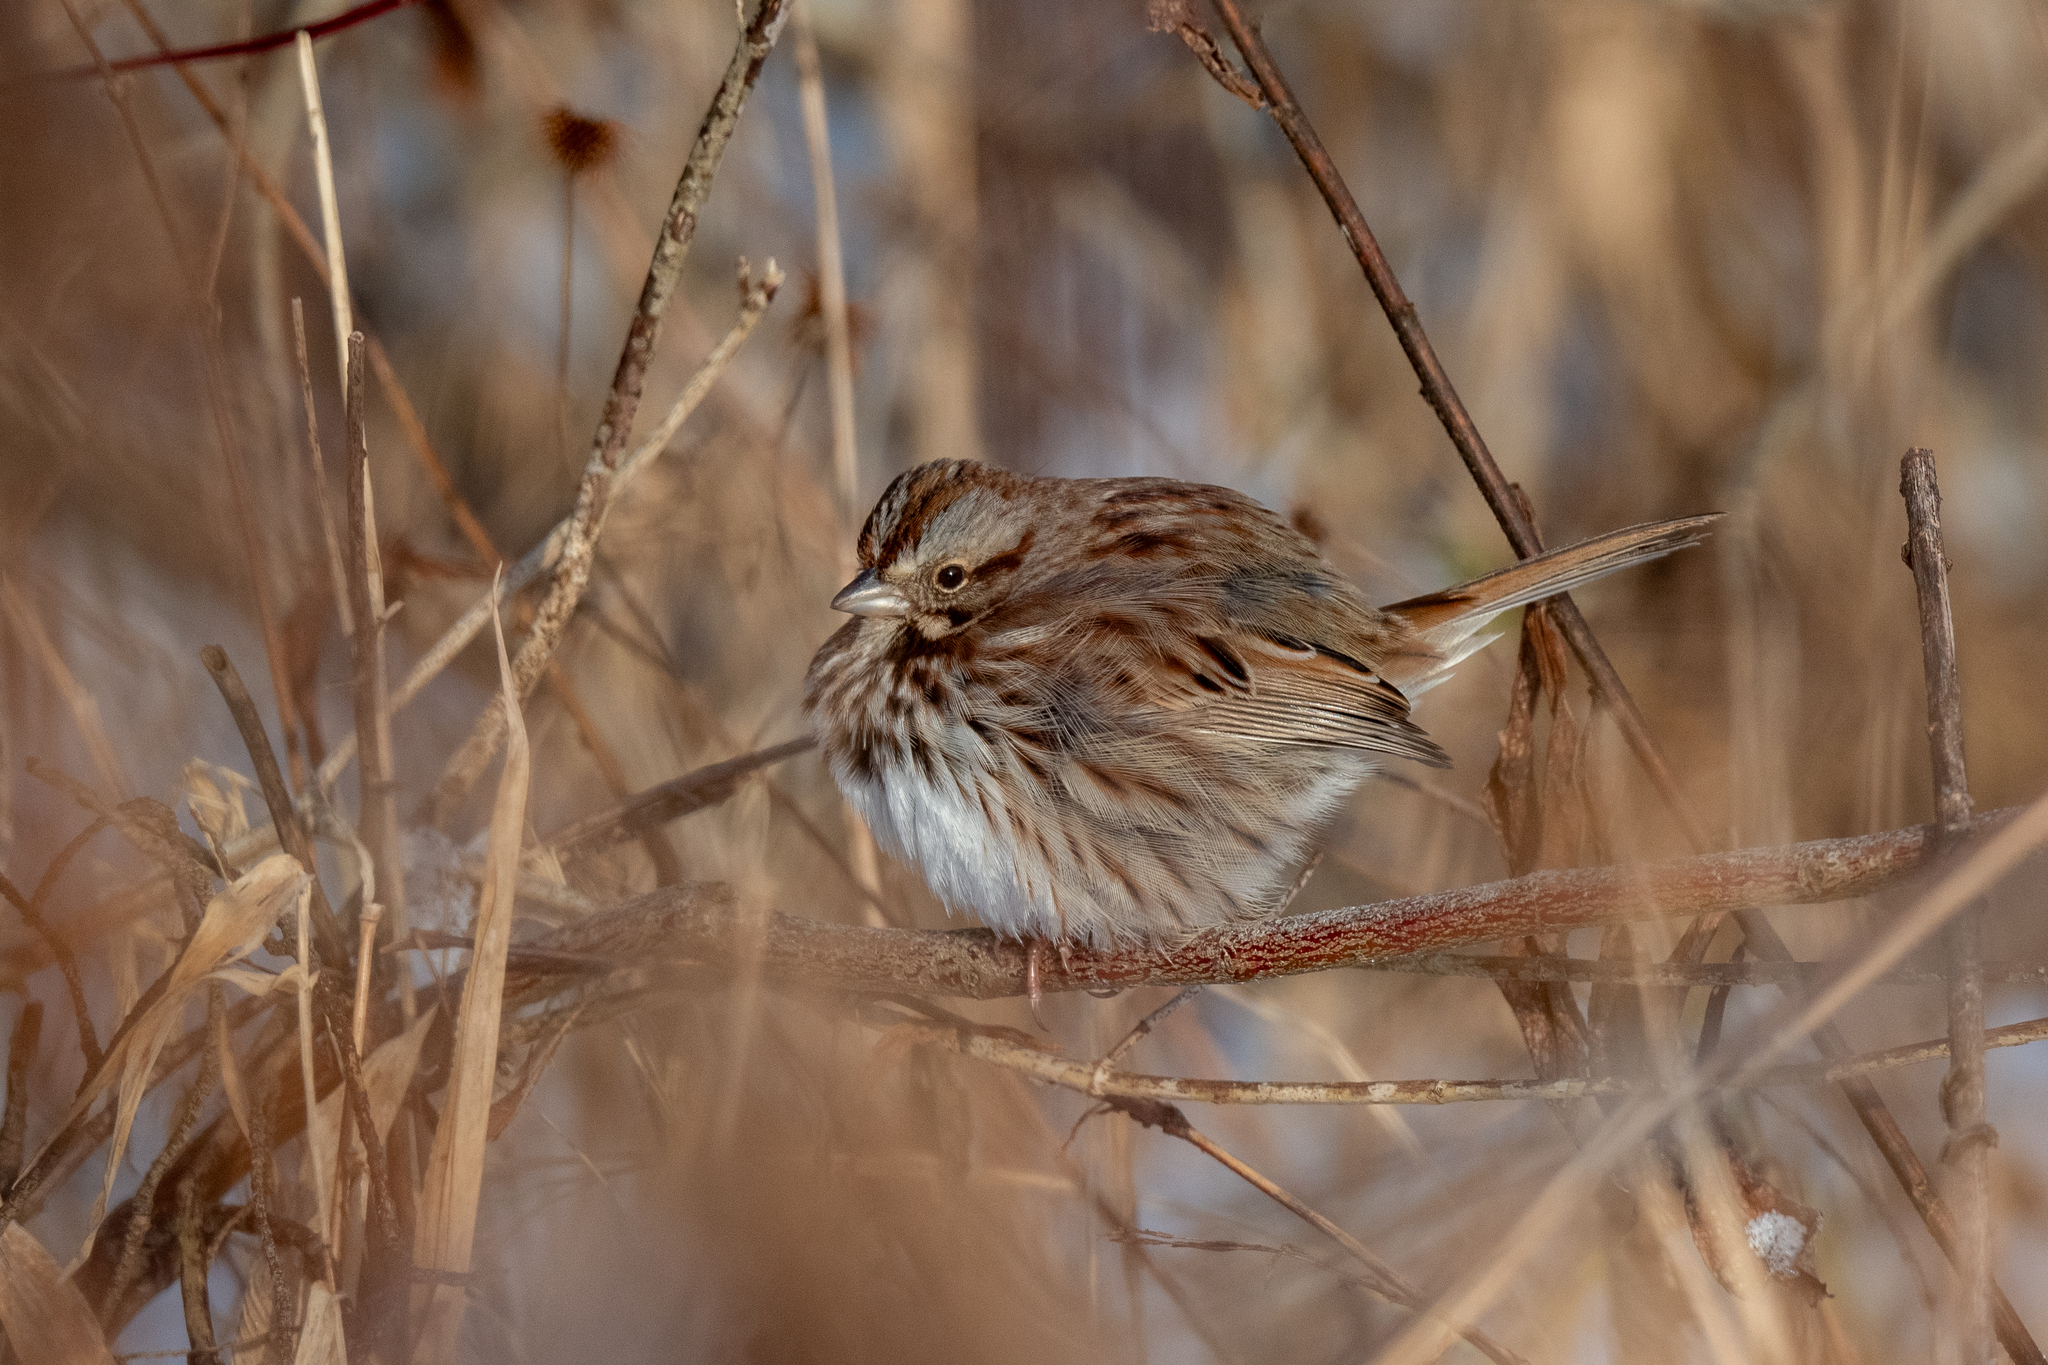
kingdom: Animalia
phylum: Chordata
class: Aves
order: Passeriformes
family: Passerellidae
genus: Melospiza
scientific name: Melospiza melodia
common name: Song sparrow
